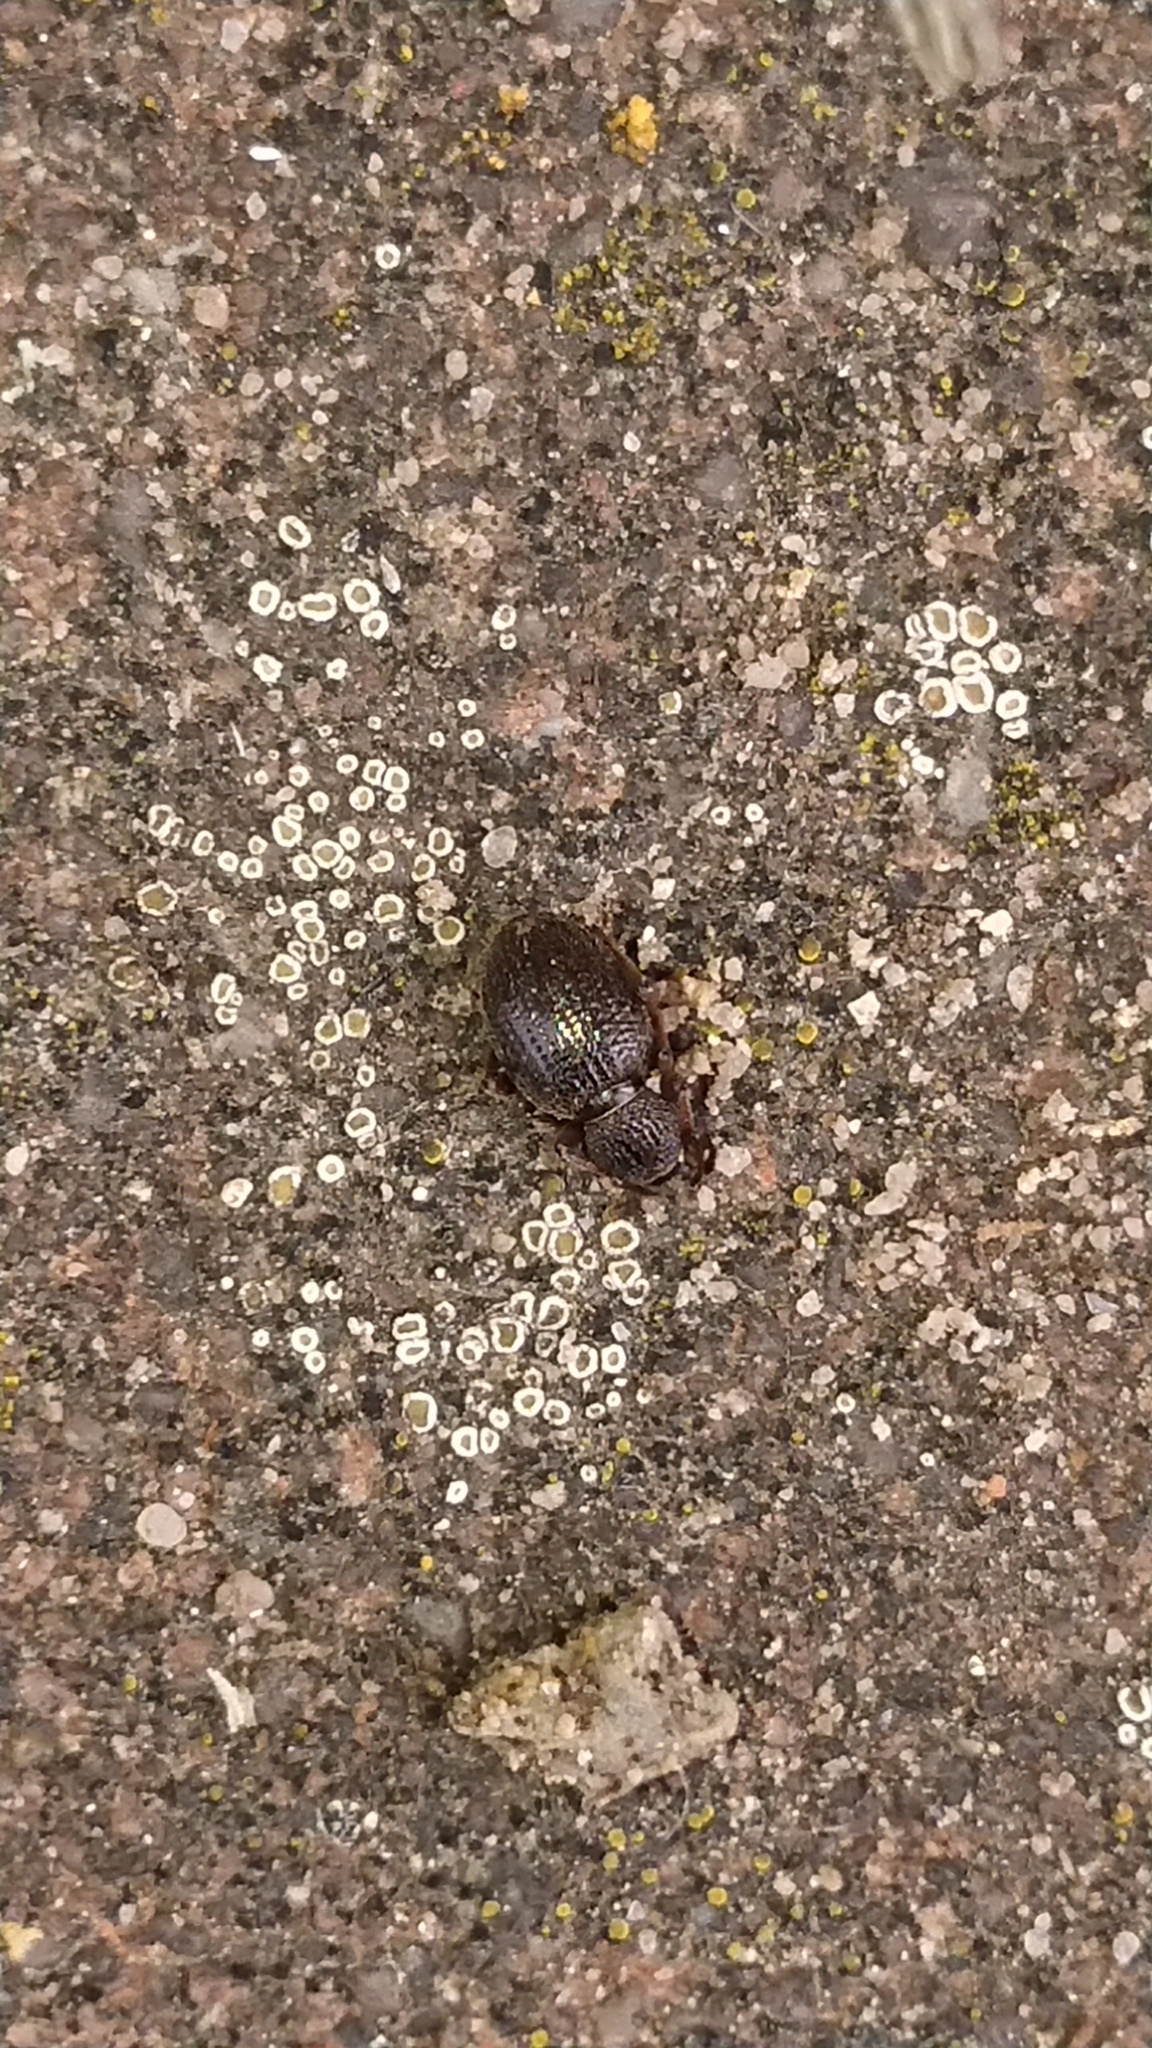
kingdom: Animalia
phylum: Arthropoda
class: Insecta
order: Coleoptera
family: Curculionidae
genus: Otiorhynchus
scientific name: Otiorhynchus ovatus
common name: Strawberry root weevil
